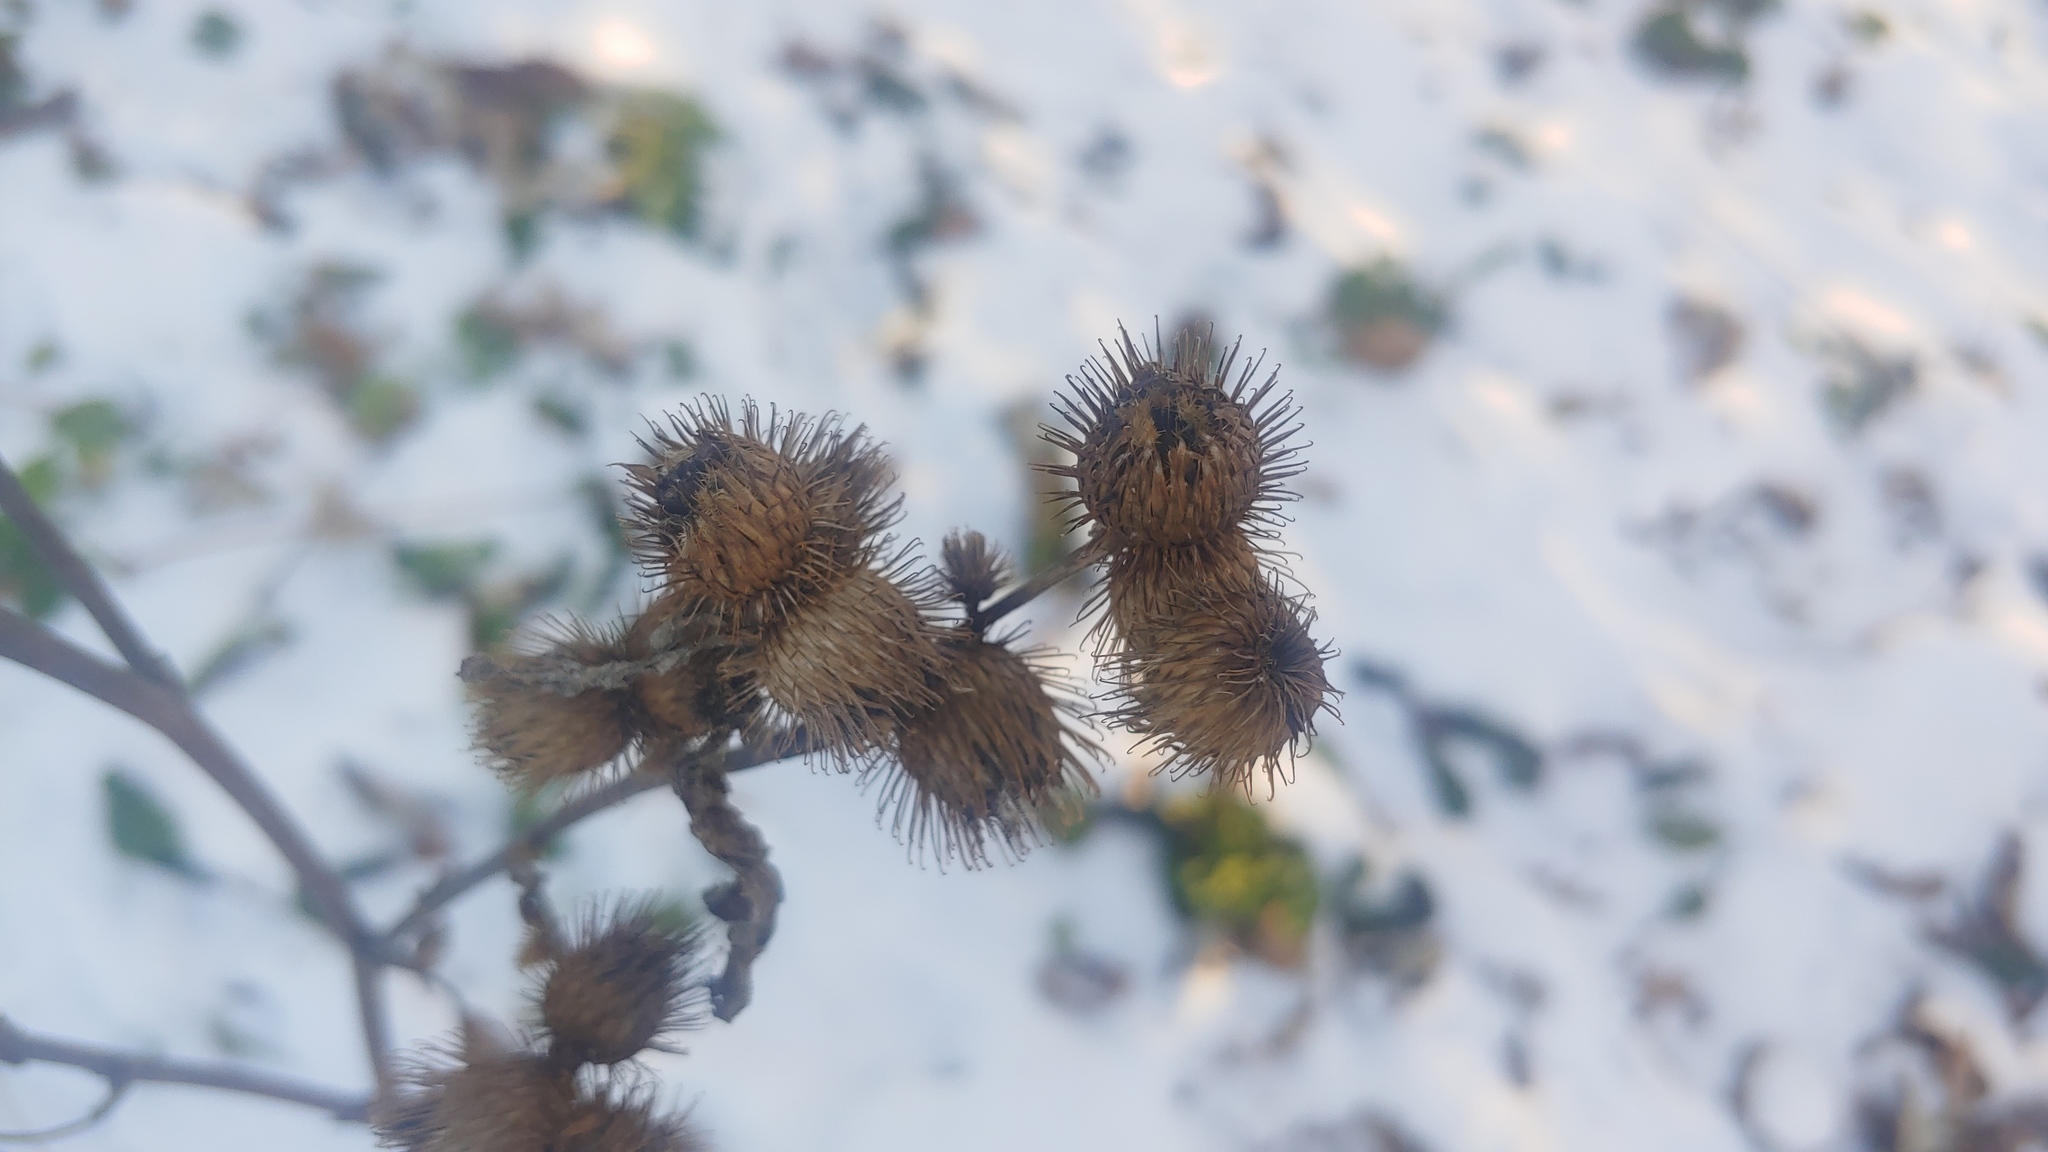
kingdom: Plantae
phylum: Tracheophyta
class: Magnoliopsida
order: Asterales
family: Asteraceae
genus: Arctium
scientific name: Arctium minus
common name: Lesser burdock
